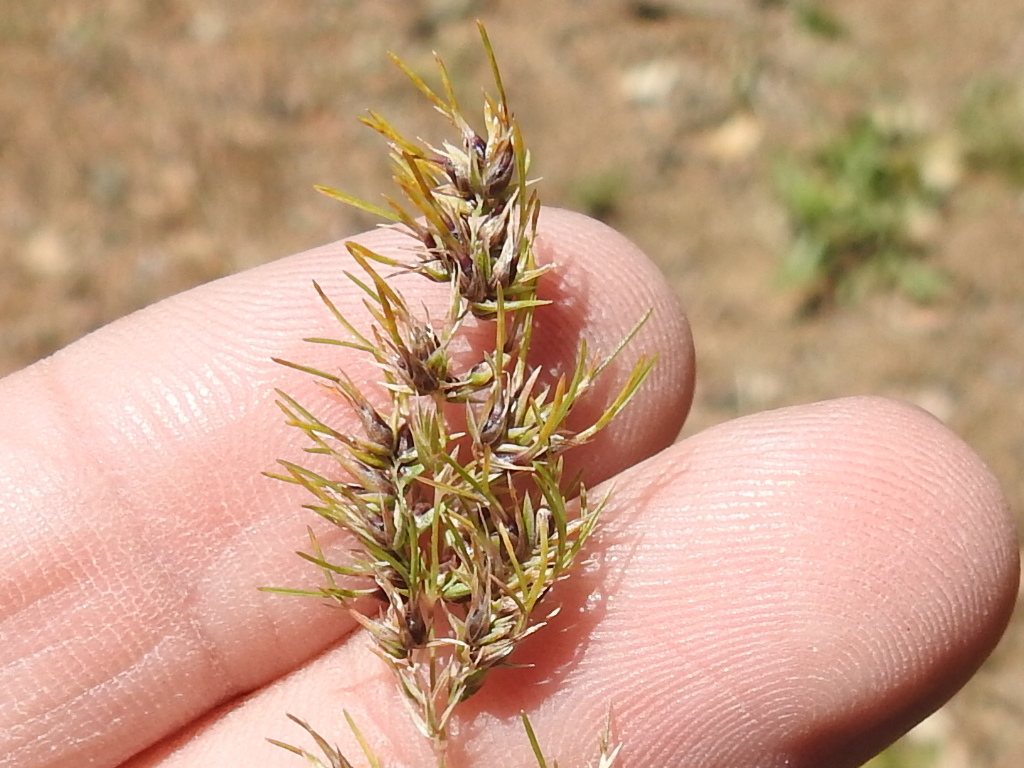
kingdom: Plantae
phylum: Tracheophyta
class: Liliopsida
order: Poales
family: Poaceae
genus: Poa
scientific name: Poa bulbosa
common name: Bulbous bluegrass
